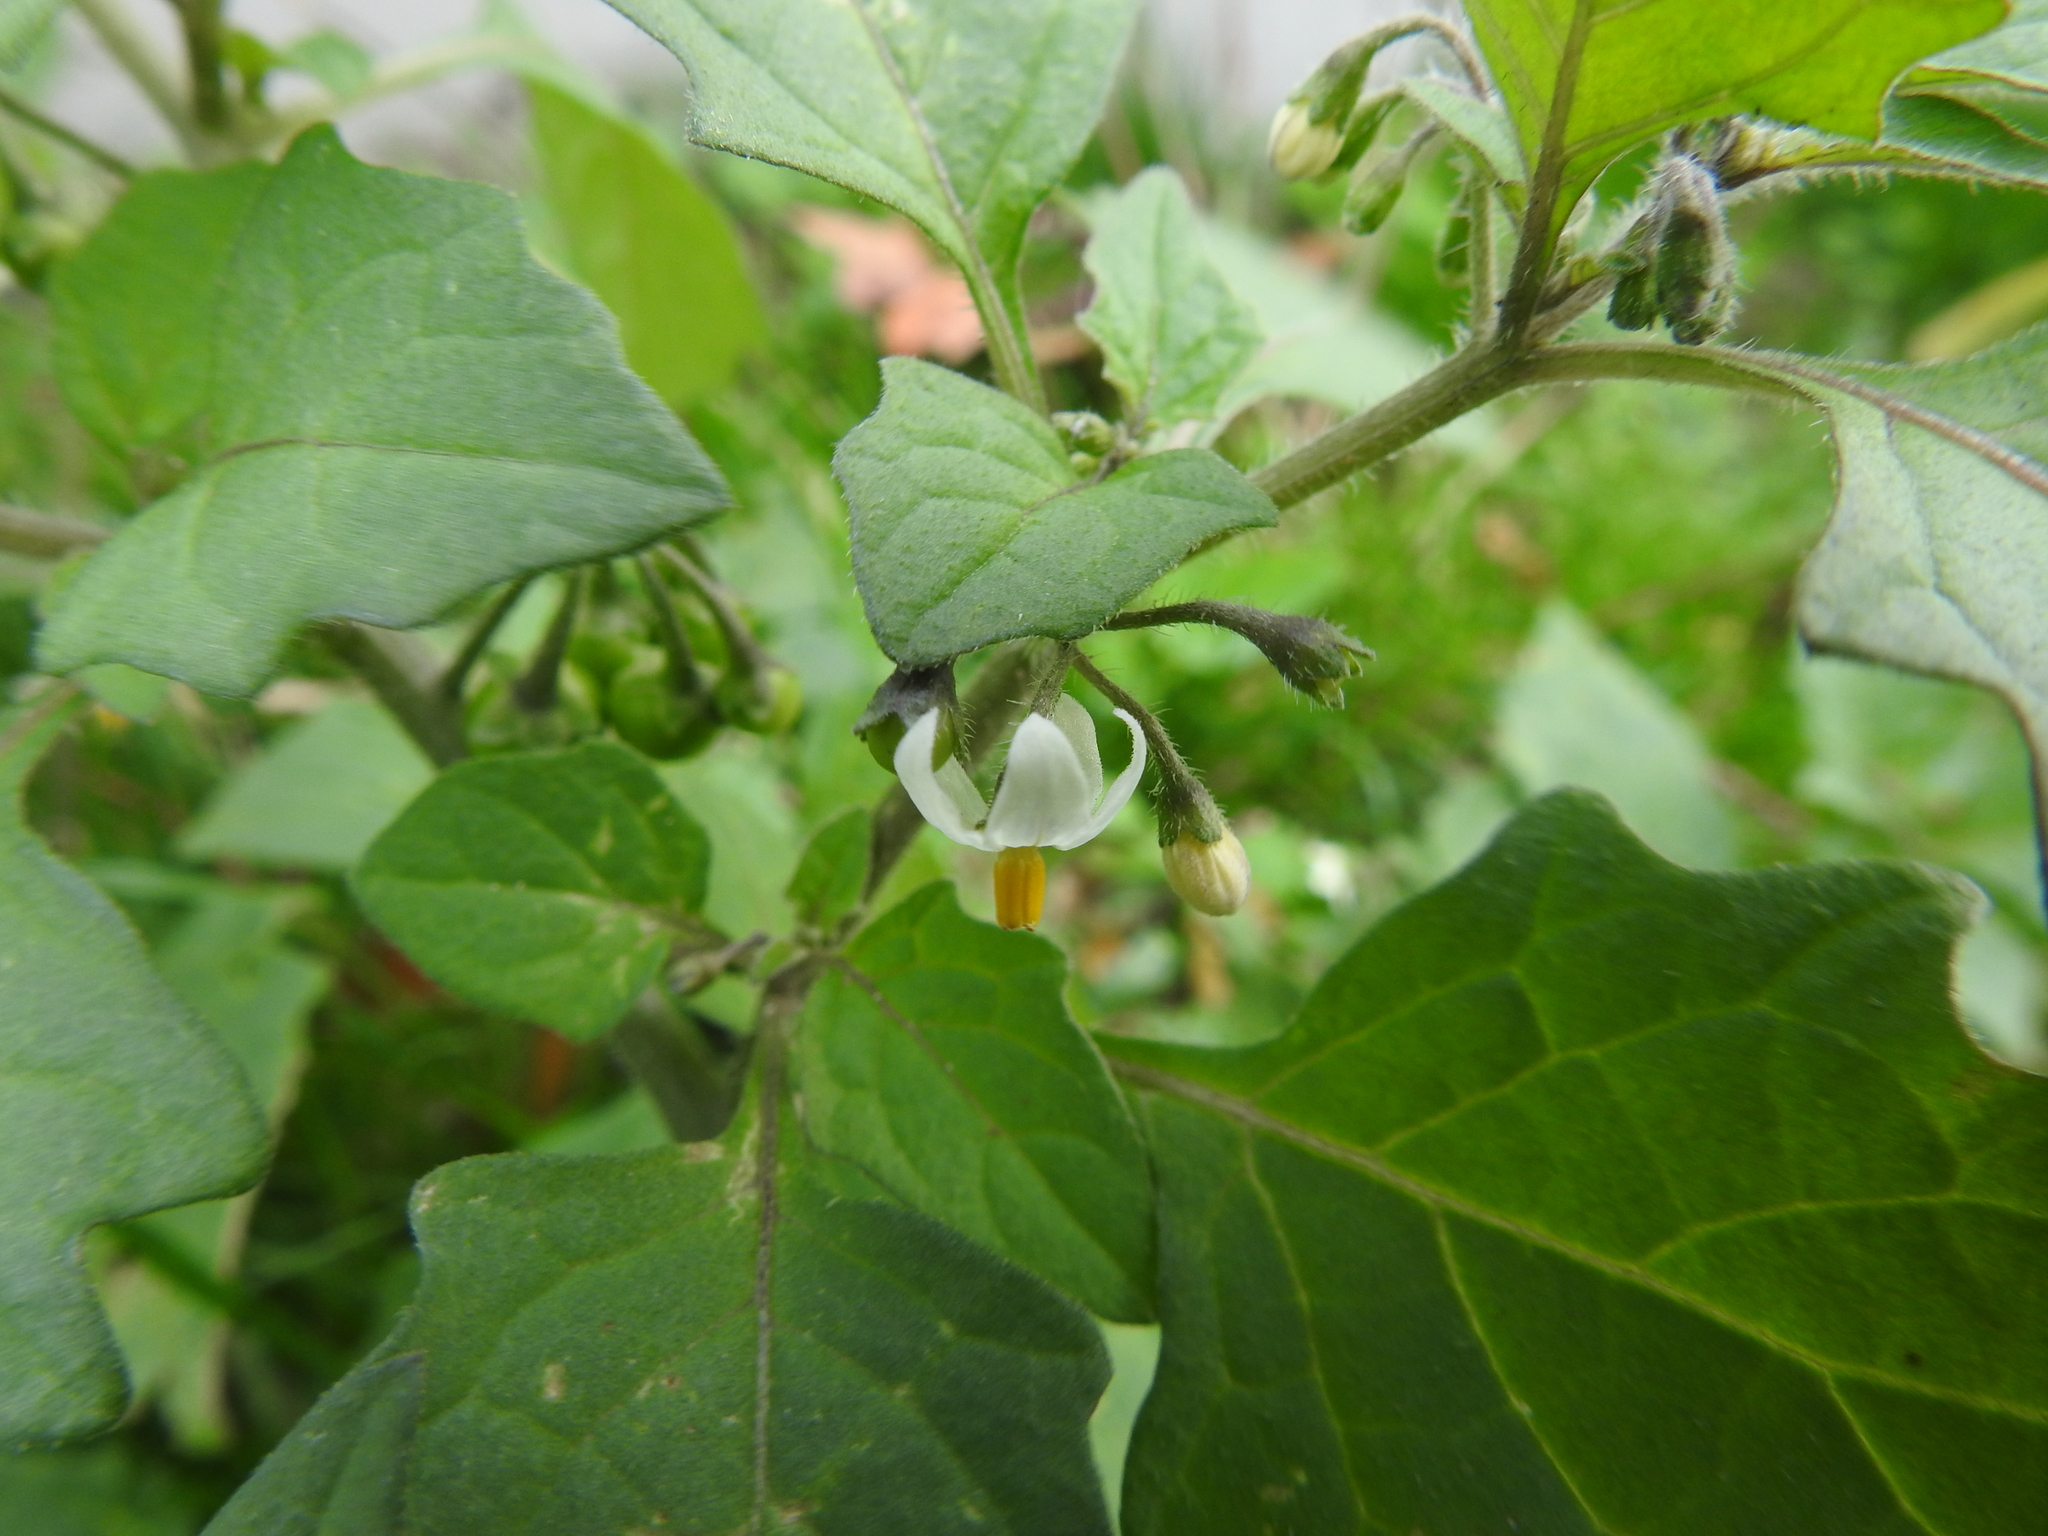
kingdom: Plantae
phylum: Tracheophyta
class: Magnoliopsida
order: Solanales
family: Solanaceae
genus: Solanum
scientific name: Solanum nigrum
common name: Black nightshade
